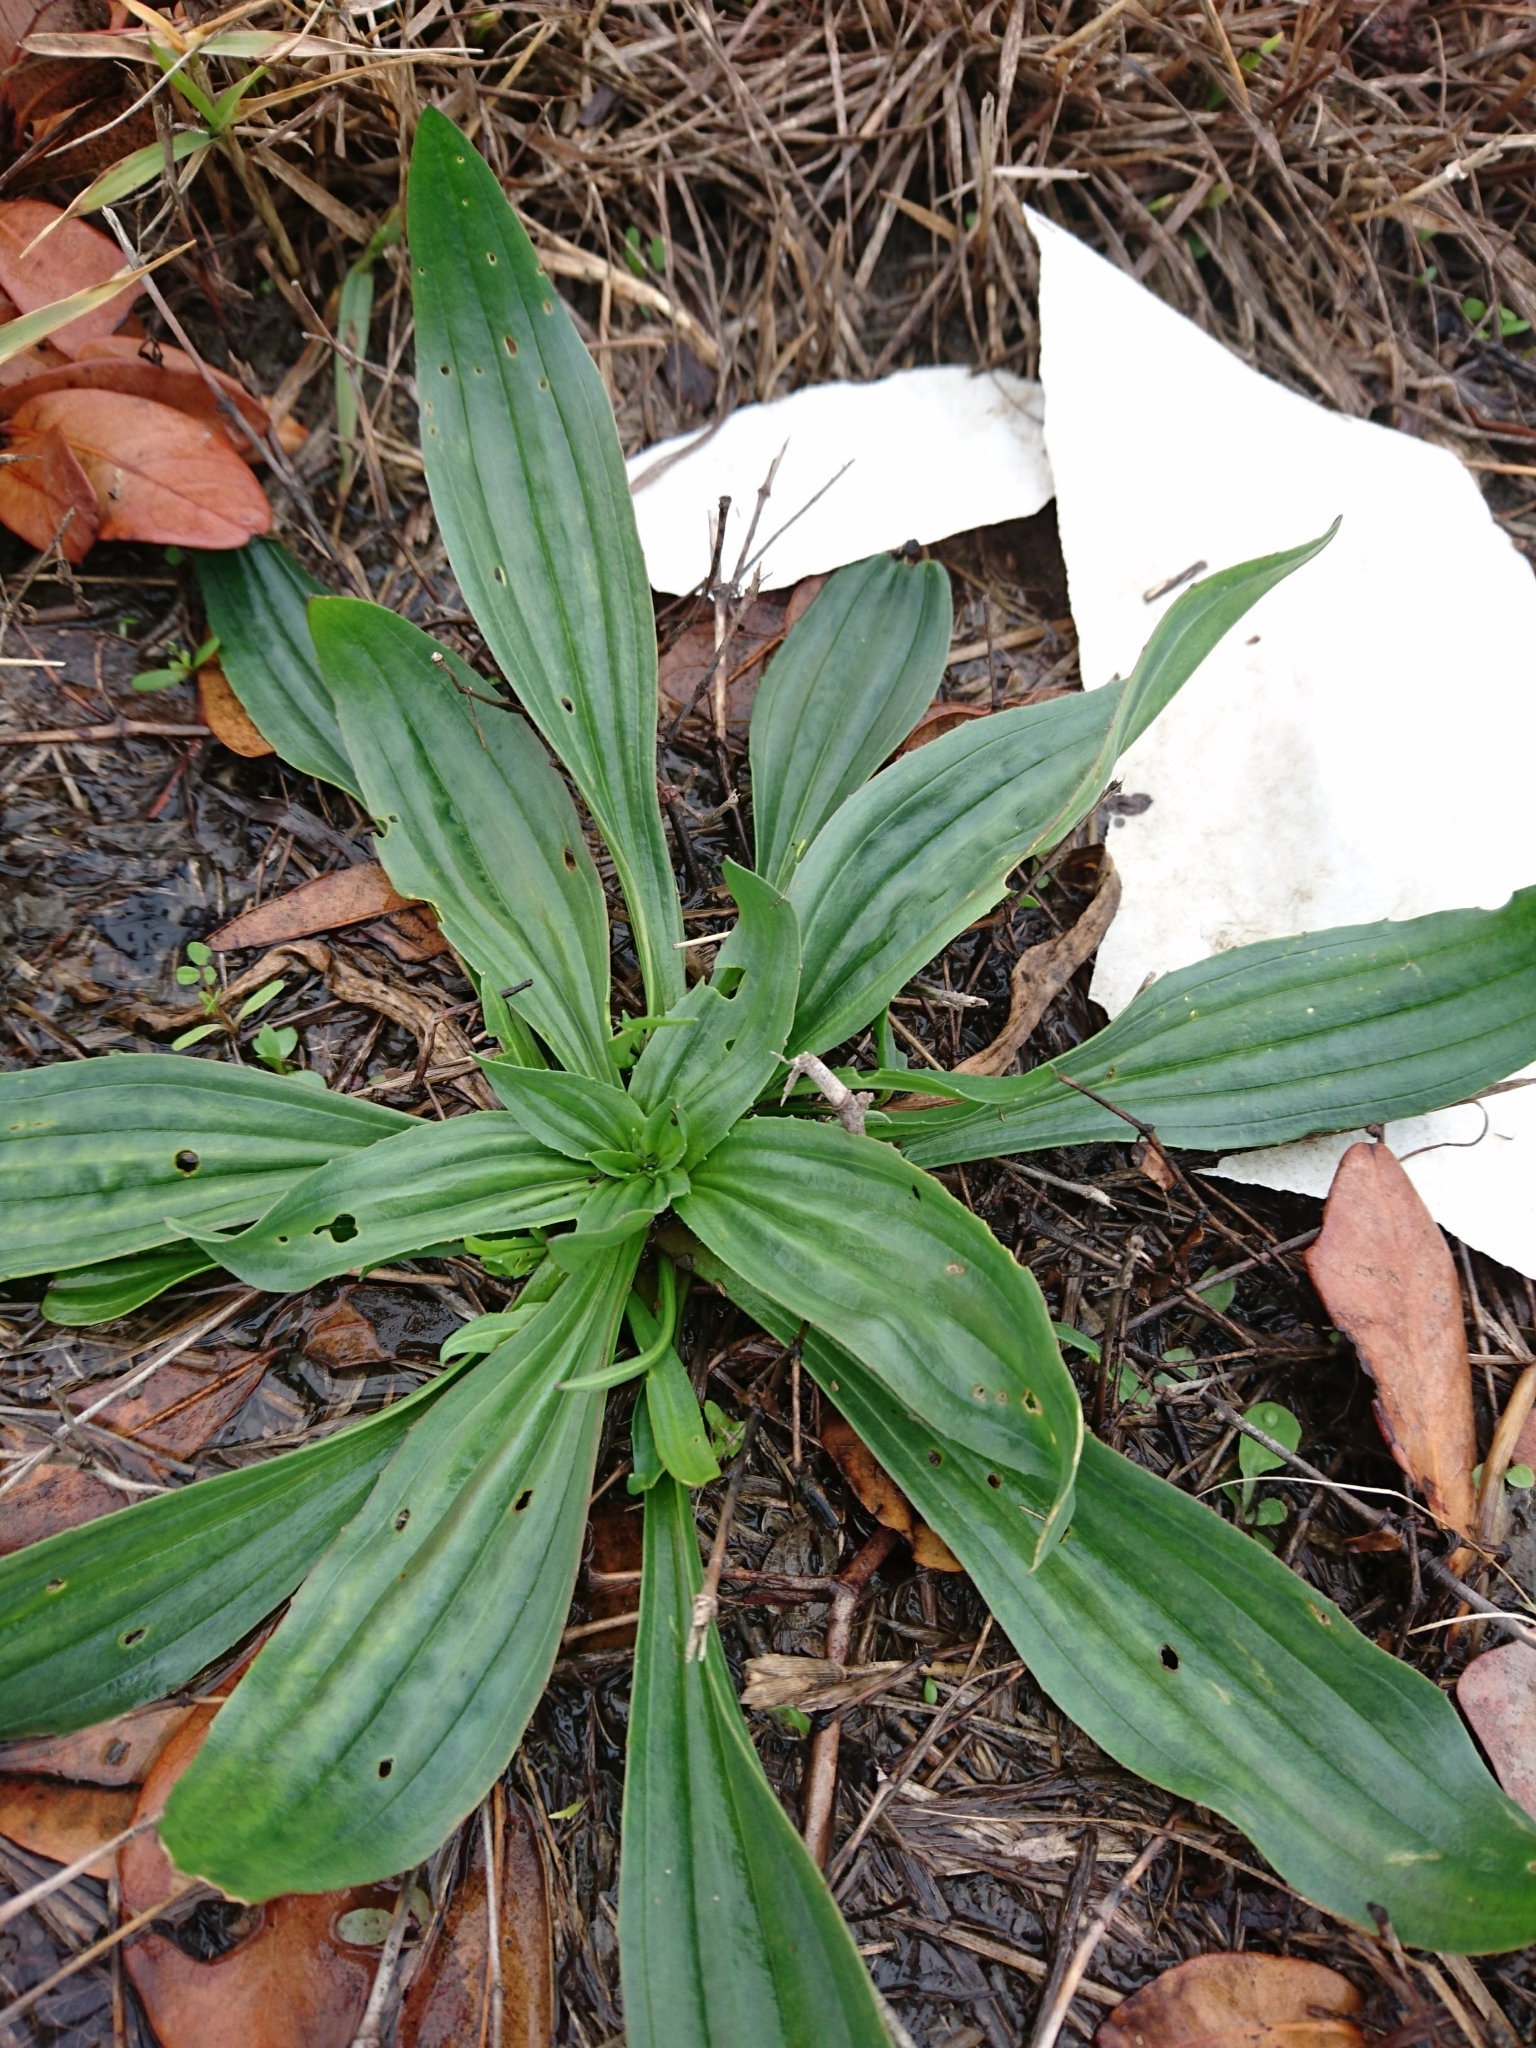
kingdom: Plantae
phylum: Tracheophyta
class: Magnoliopsida
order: Lamiales
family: Plantaginaceae
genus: Plantago
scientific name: Plantago lanceolata
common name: Ribwort plantain
